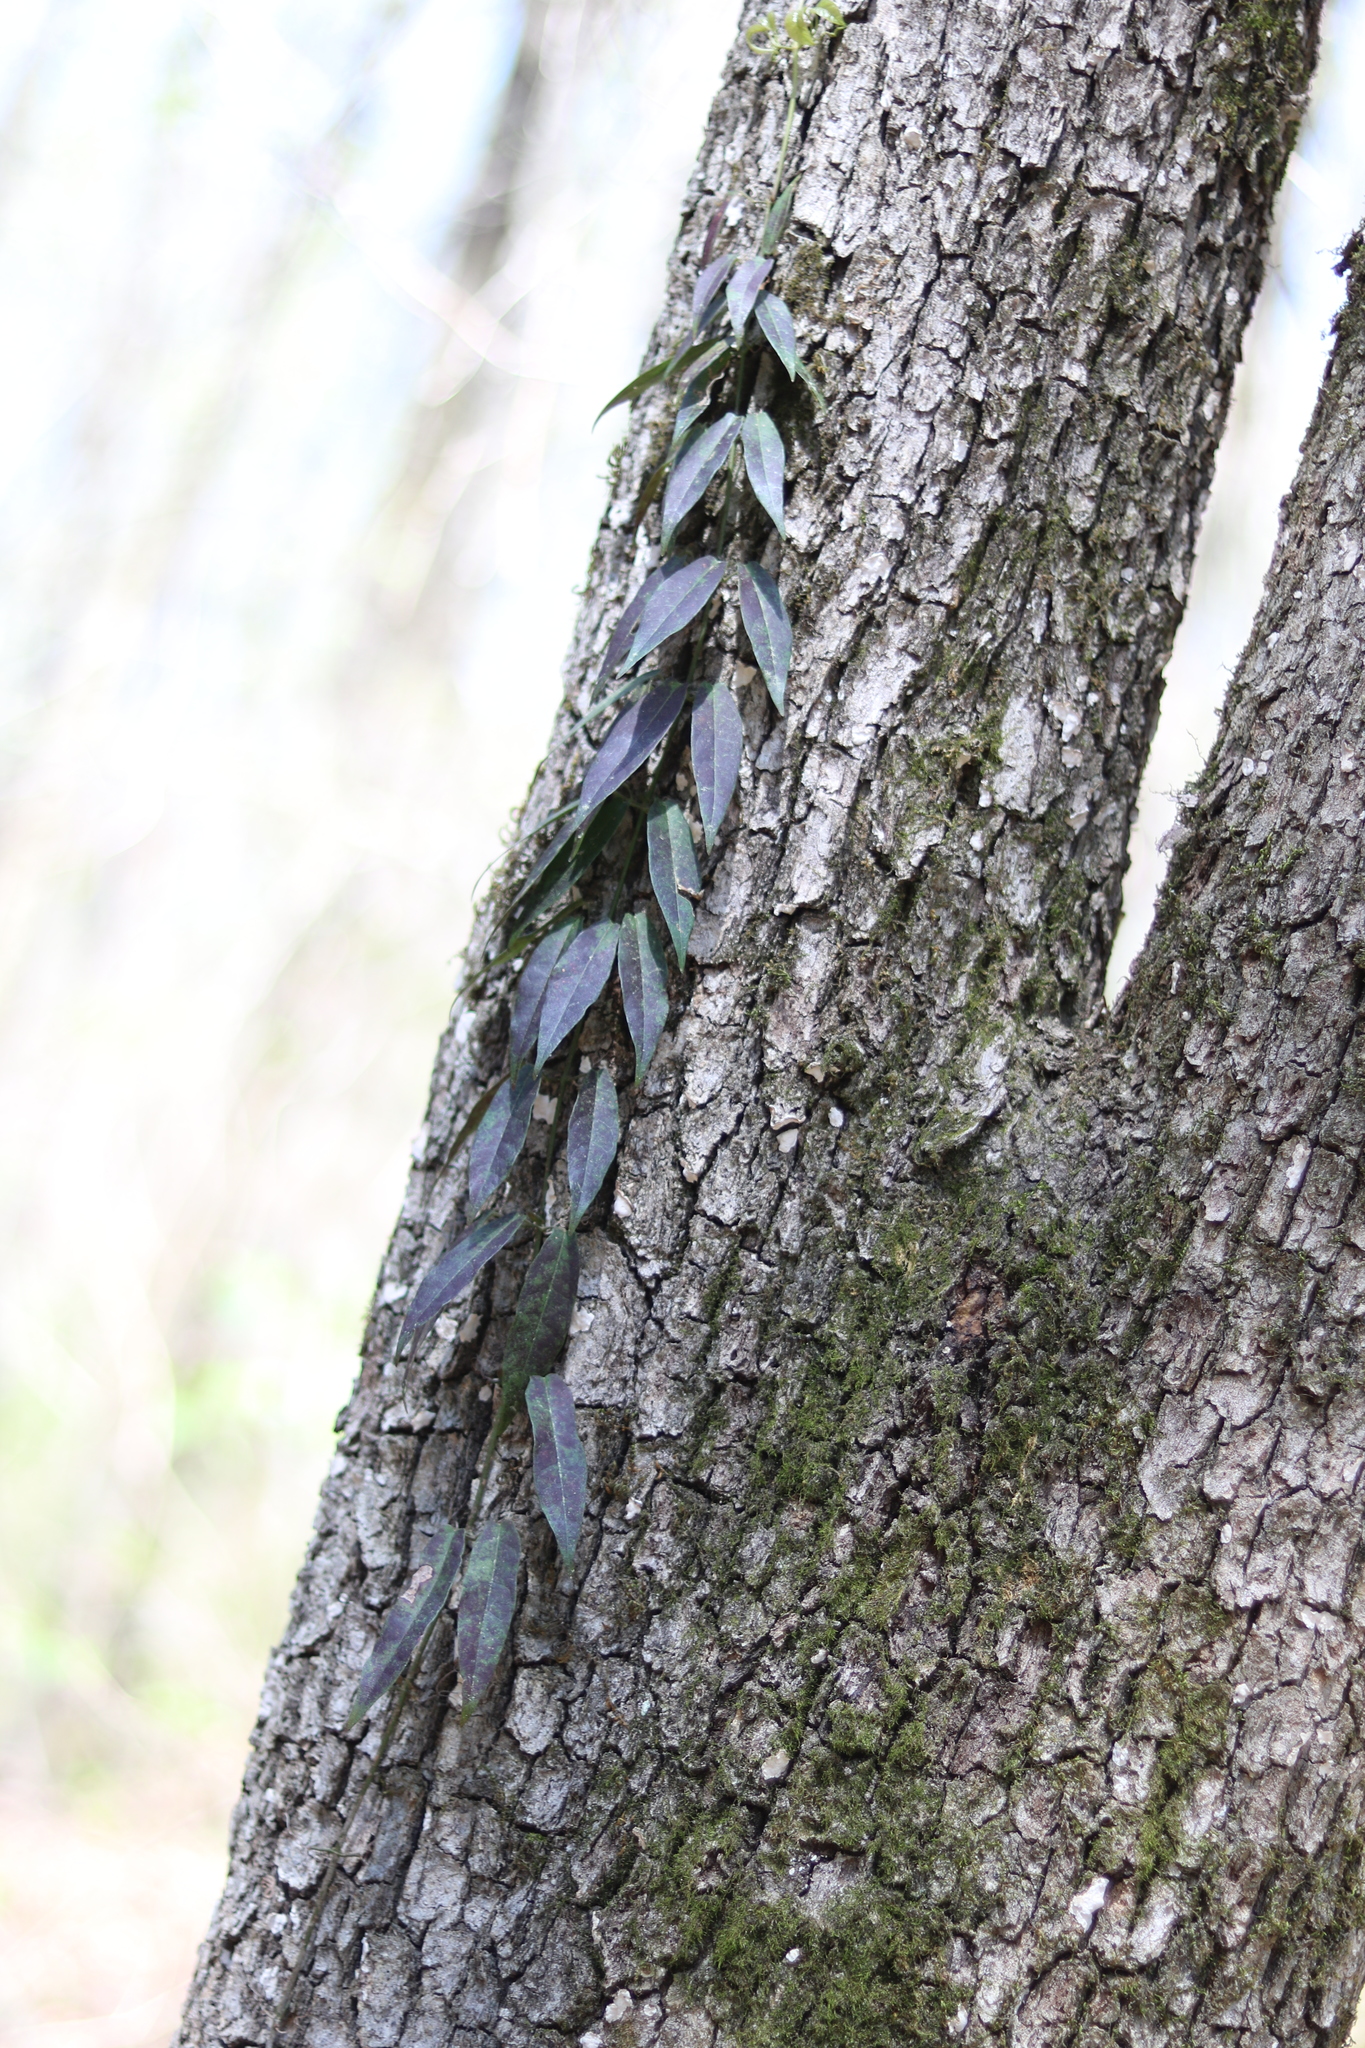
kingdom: Plantae
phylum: Tracheophyta
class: Magnoliopsida
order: Lamiales
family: Bignoniaceae
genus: Bignonia
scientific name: Bignonia capreolata
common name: Crossvine
